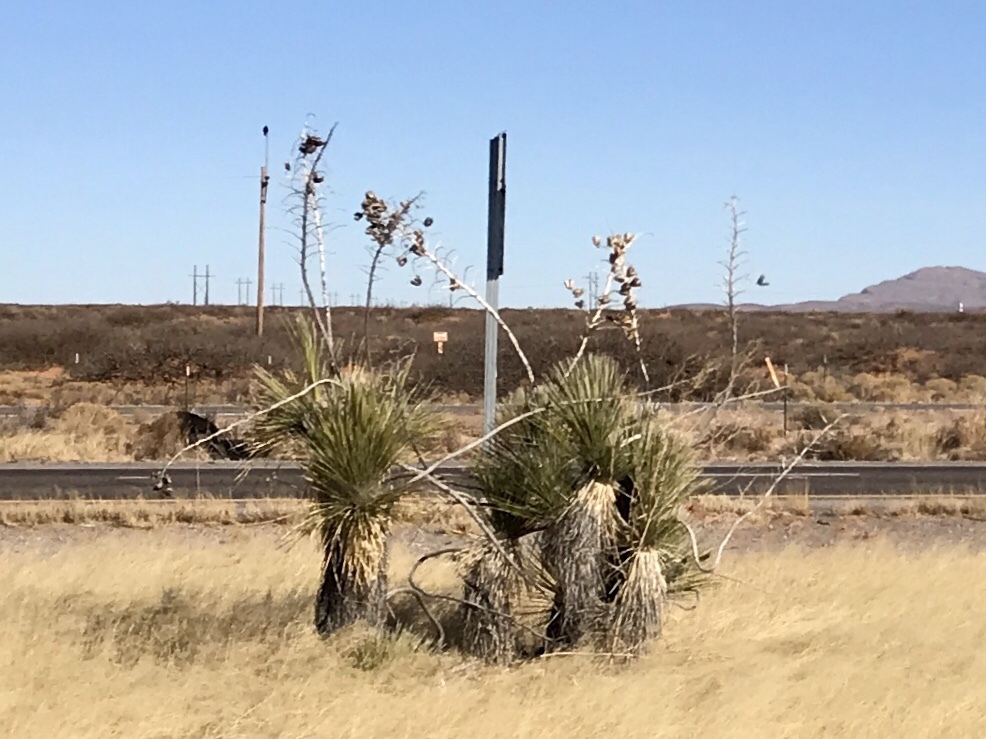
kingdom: Plantae
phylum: Tracheophyta
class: Liliopsida
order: Asparagales
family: Asparagaceae
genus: Yucca
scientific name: Yucca elata
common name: Palmella
